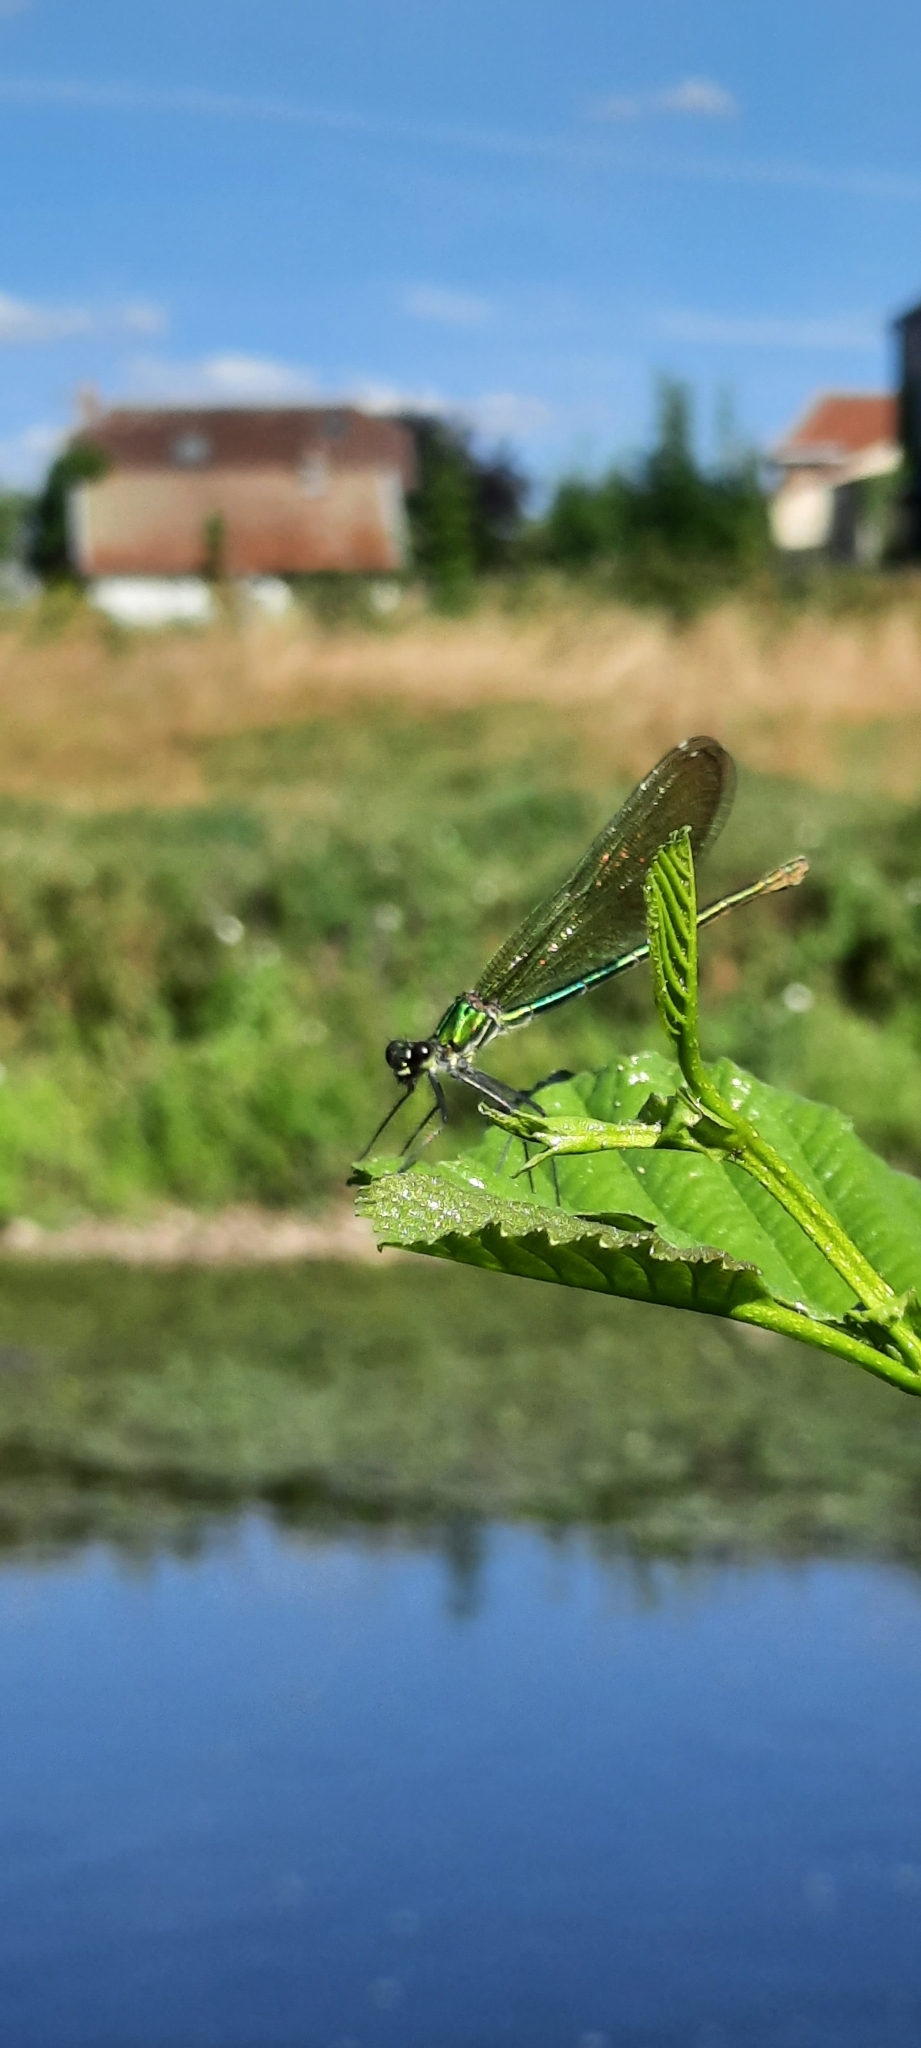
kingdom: Animalia
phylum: Arthropoda
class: Insecta
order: Odonata
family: Calopterygidae
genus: Calopteryx
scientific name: Calopteryx splendens
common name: Banded demoiselle
